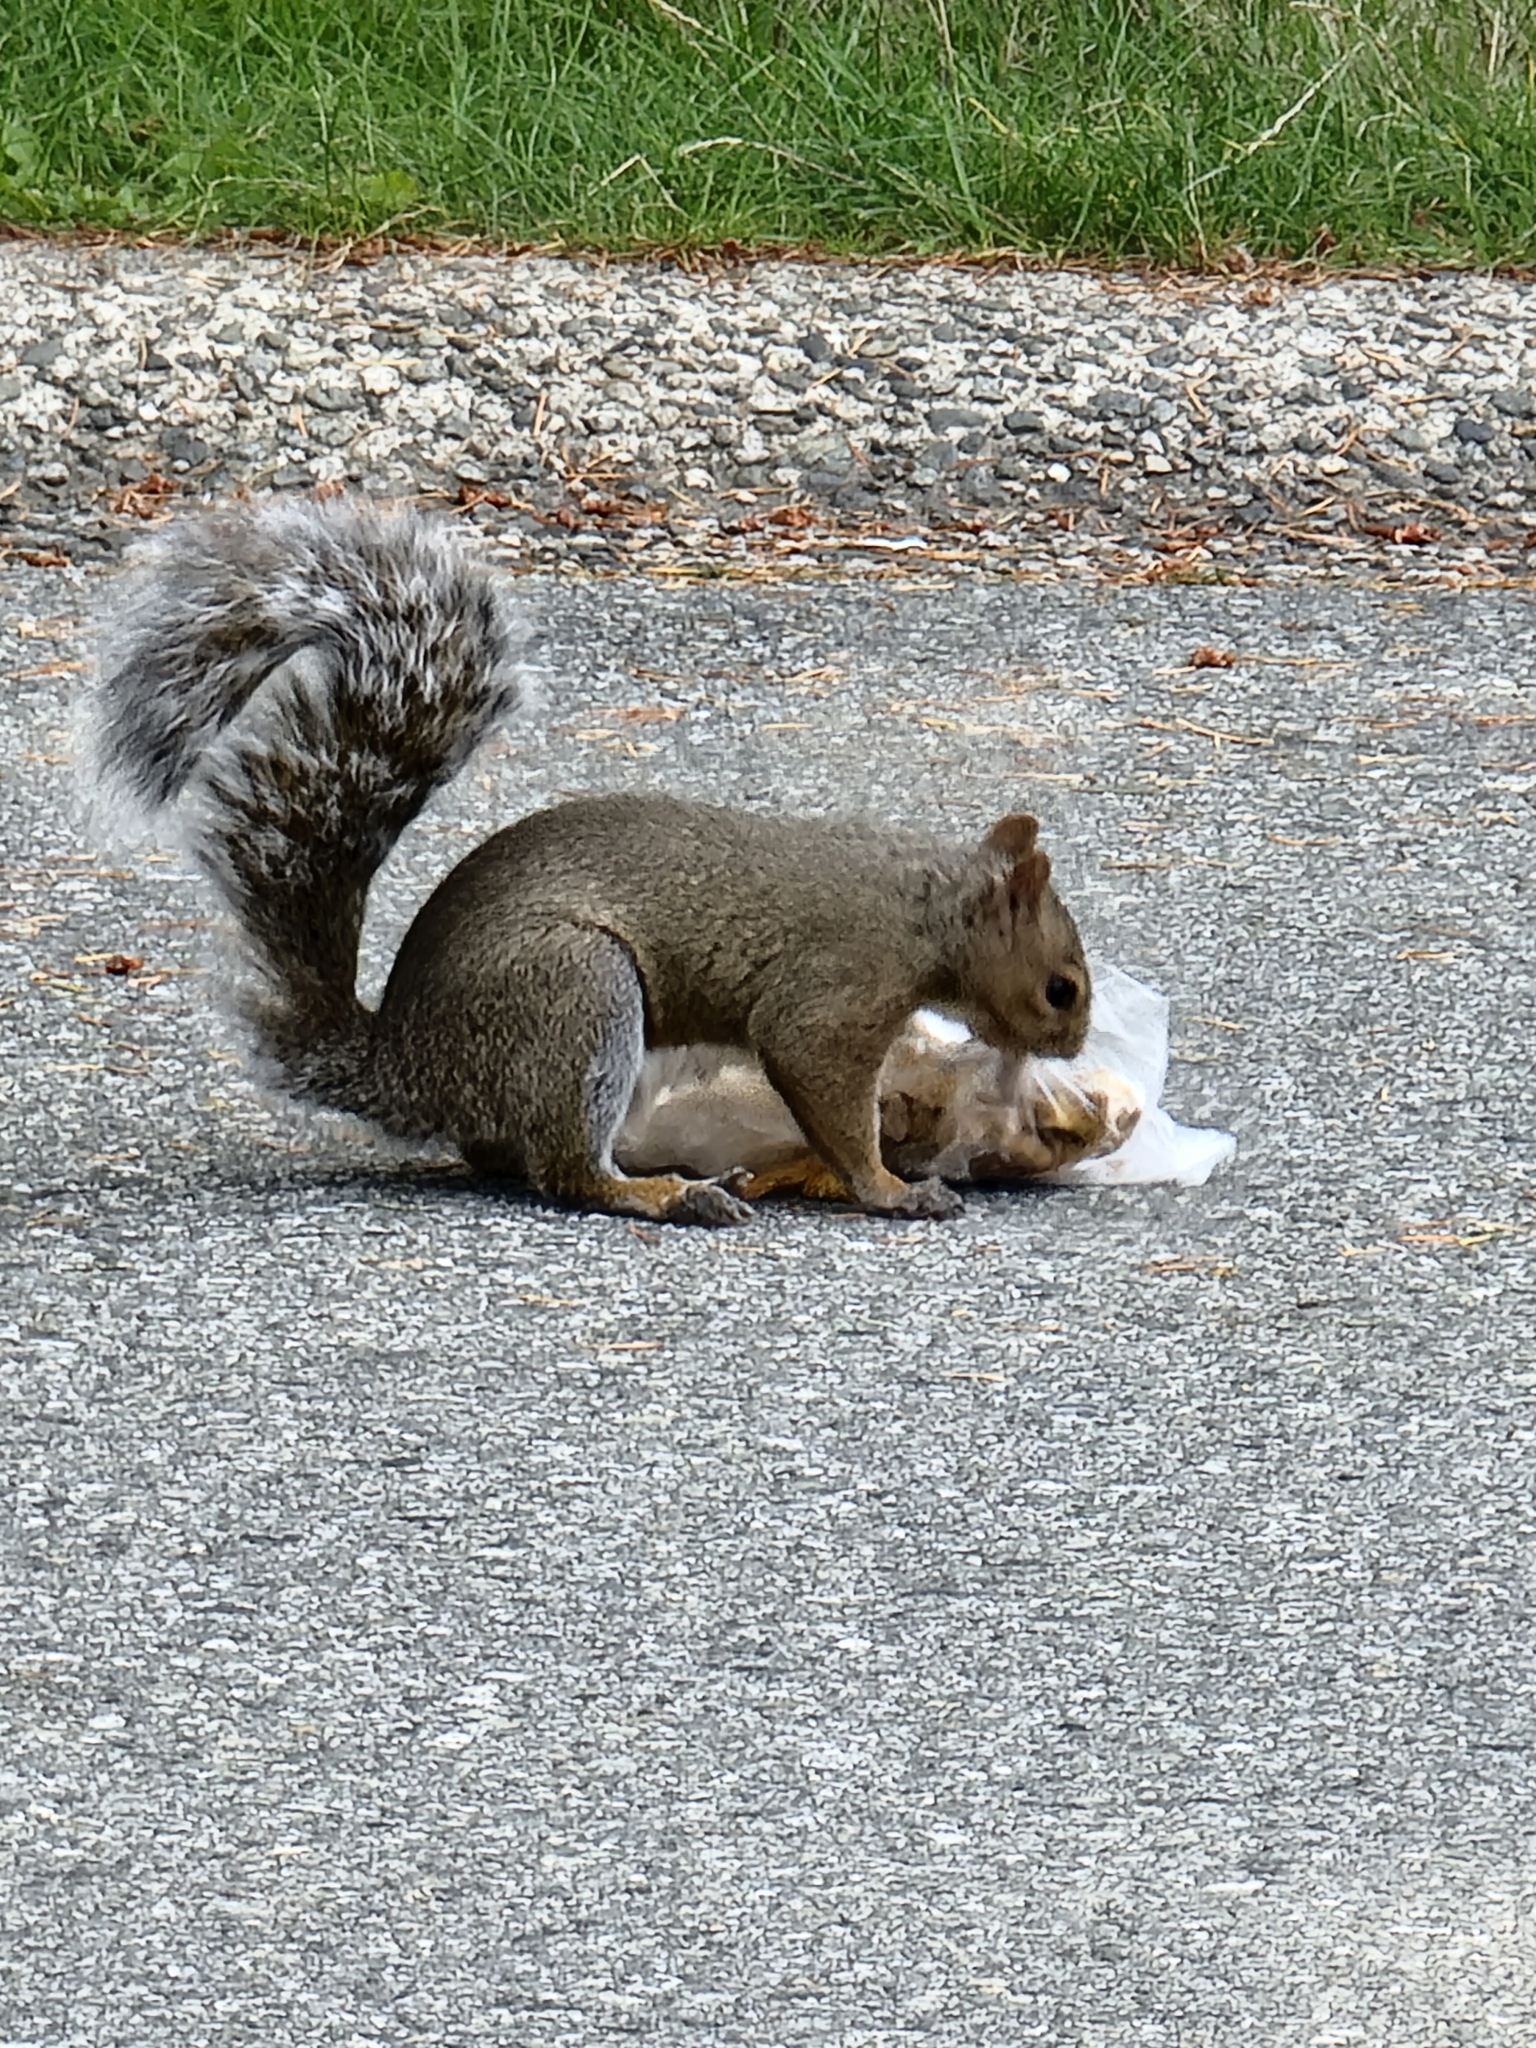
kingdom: Animalia
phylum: Chordata
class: Mammalia
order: Rodentia
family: Sciuridae
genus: Sciurus
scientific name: Sciurus carolinensis
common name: Eastern gray squirrel
